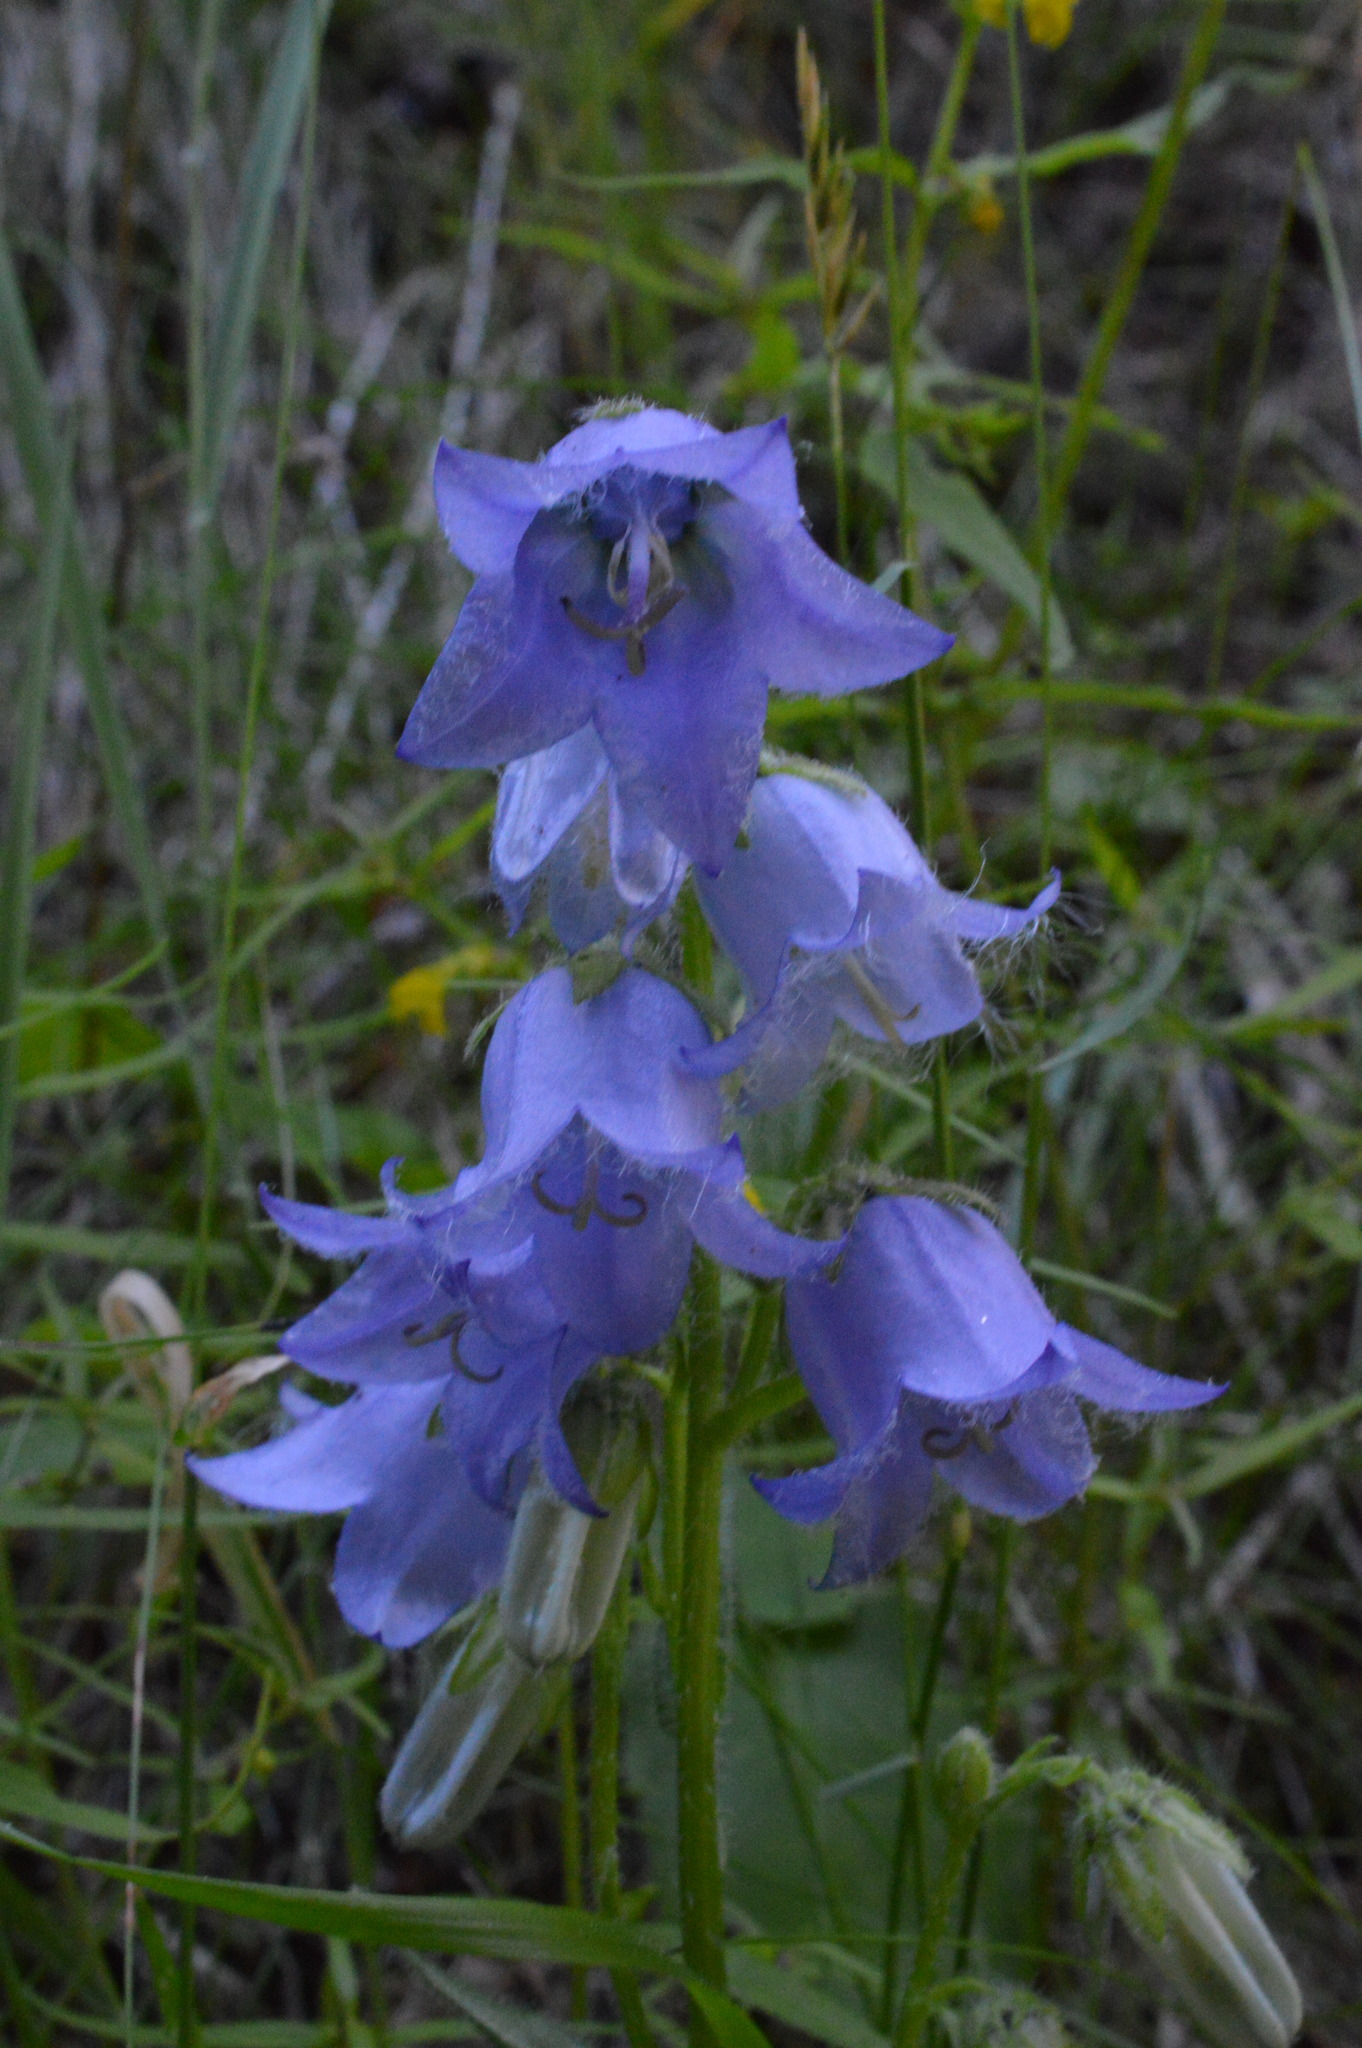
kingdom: Plantae
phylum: Tracheophyta
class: Magnoliopsida
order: Asterales
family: Campanulaceae
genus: Campanula
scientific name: Campanula barbata
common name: Bearded bellflower
